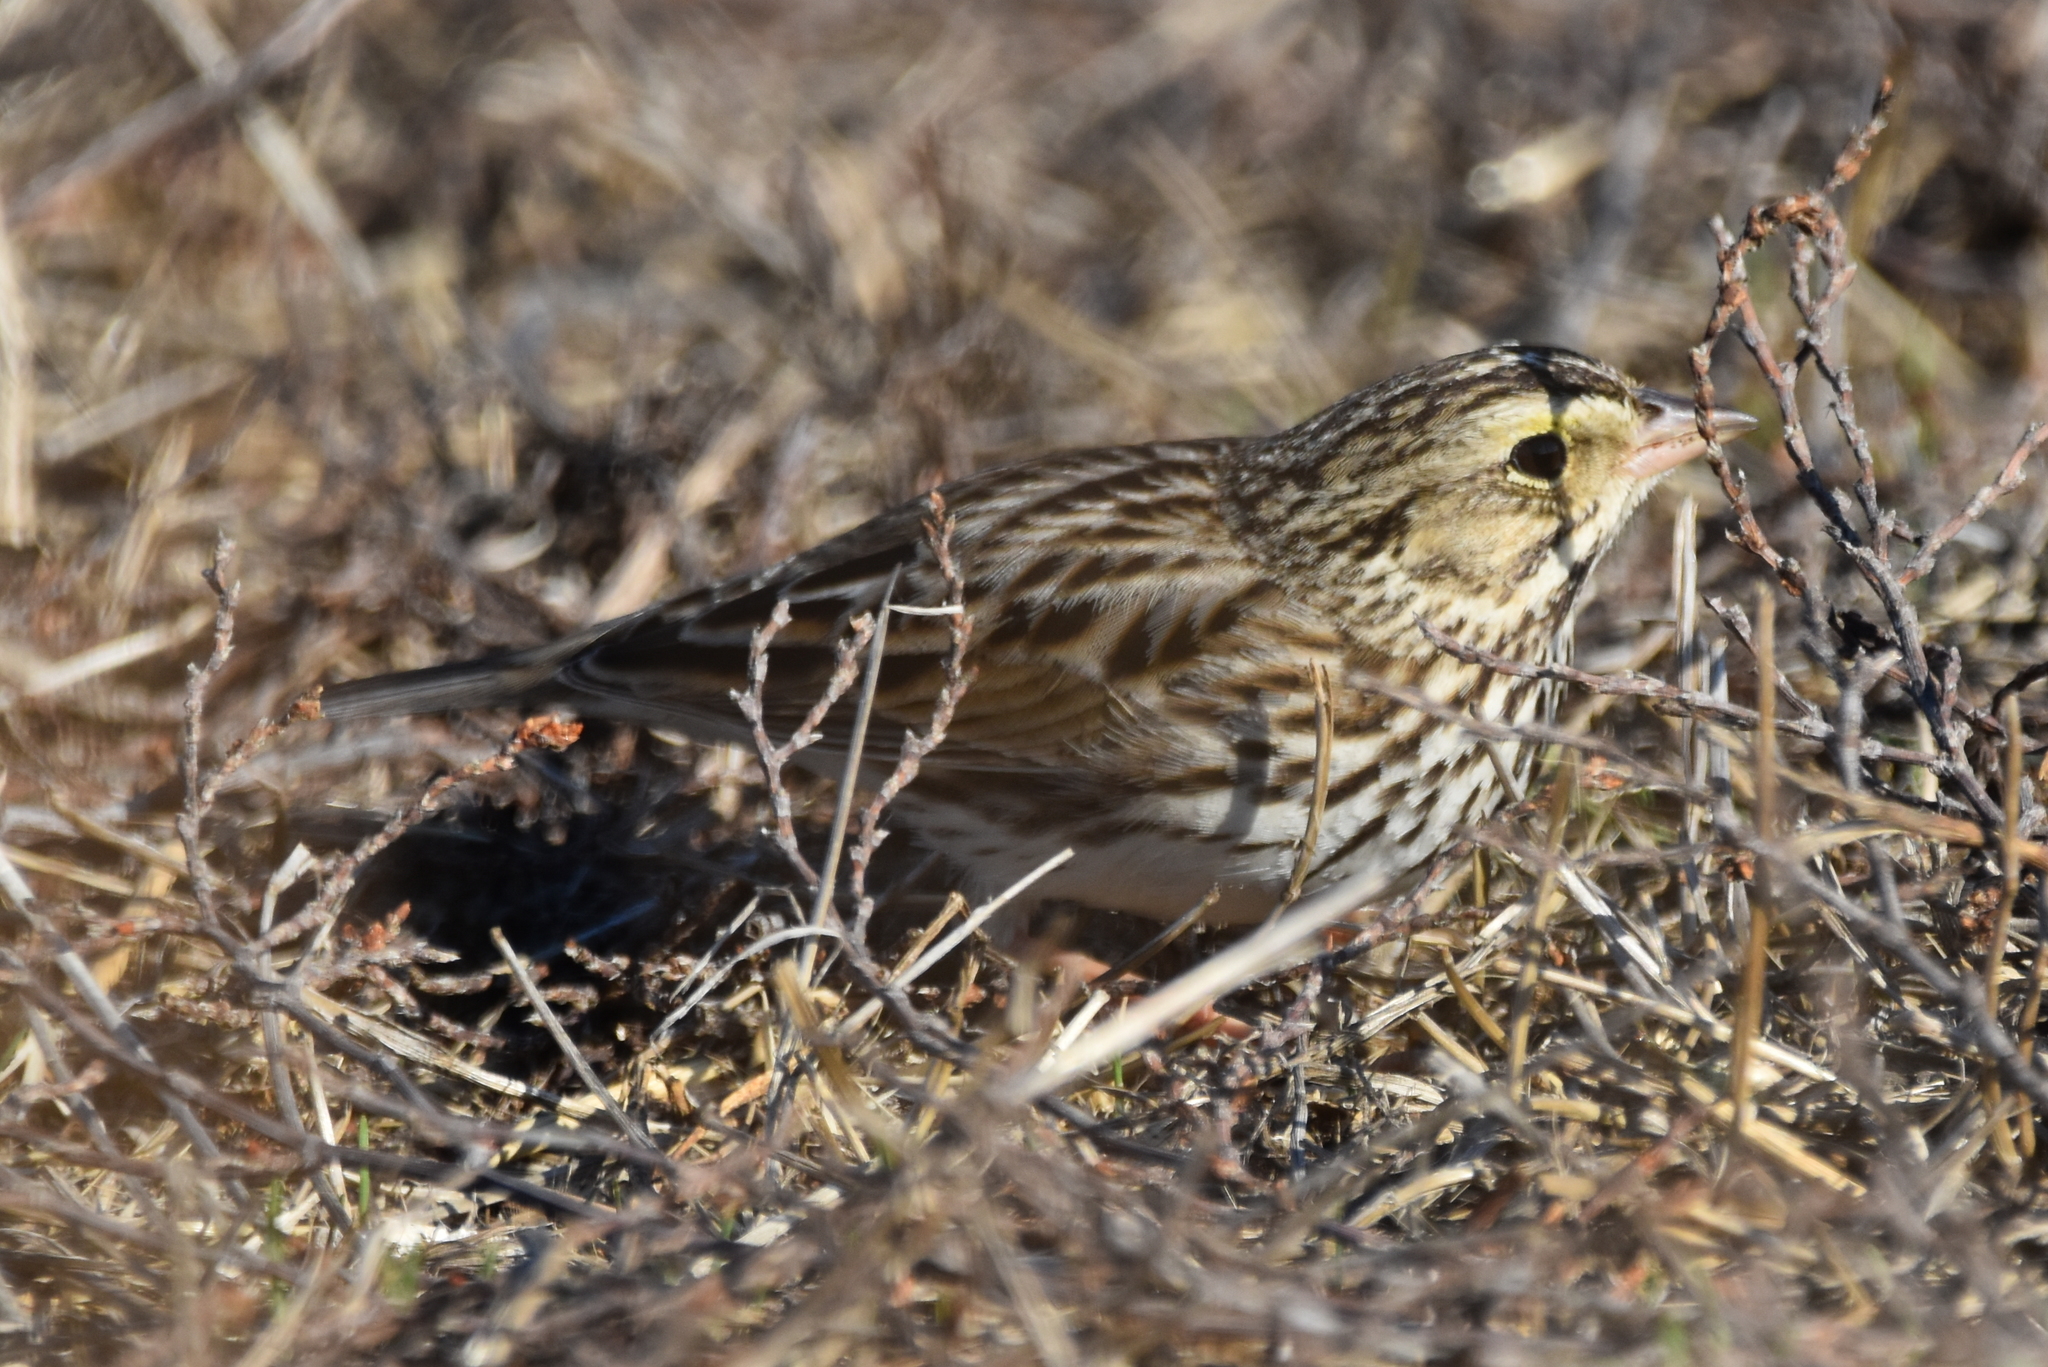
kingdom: Animalia
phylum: Chordata
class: Aves
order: Passeriformes
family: Passerellidae
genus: Passerculus
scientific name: Passerculus sandwichensis
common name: Savannah sparrow
